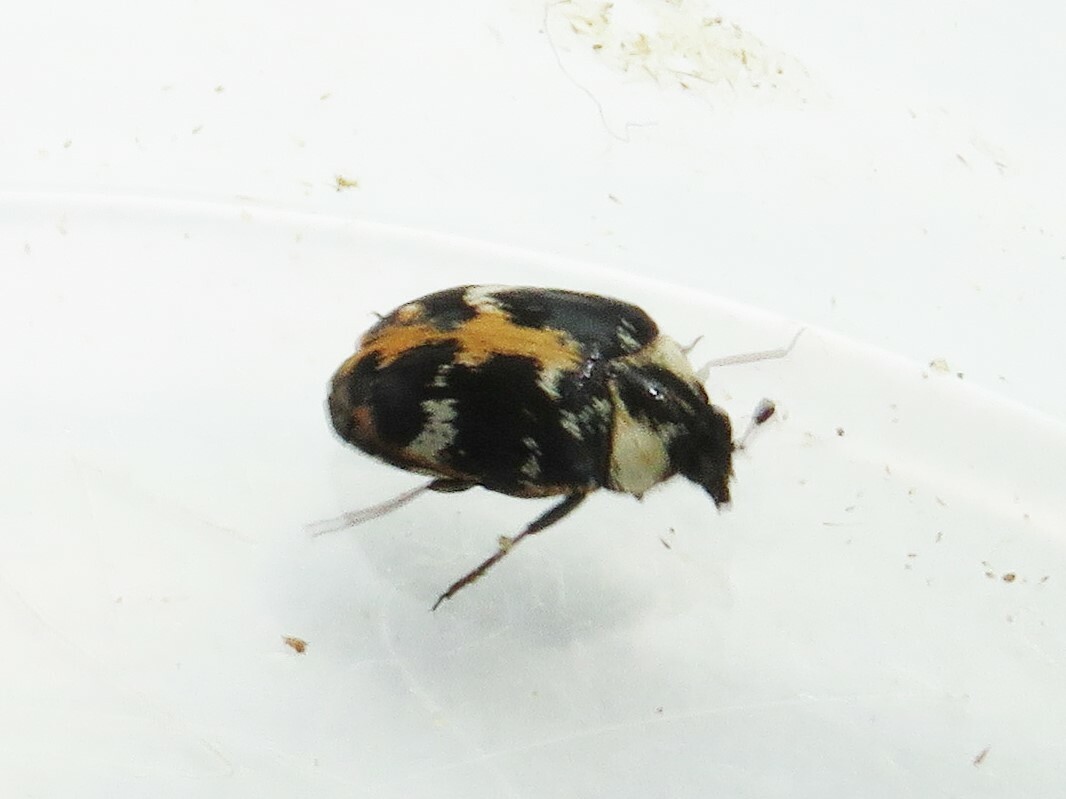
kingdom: Animalia
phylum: Arthropoda
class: Insecta
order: Coleoptera
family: Dermestidae
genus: Anthrenus
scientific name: Anthrenus scrophulariae
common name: Buffalo carpet beetle
